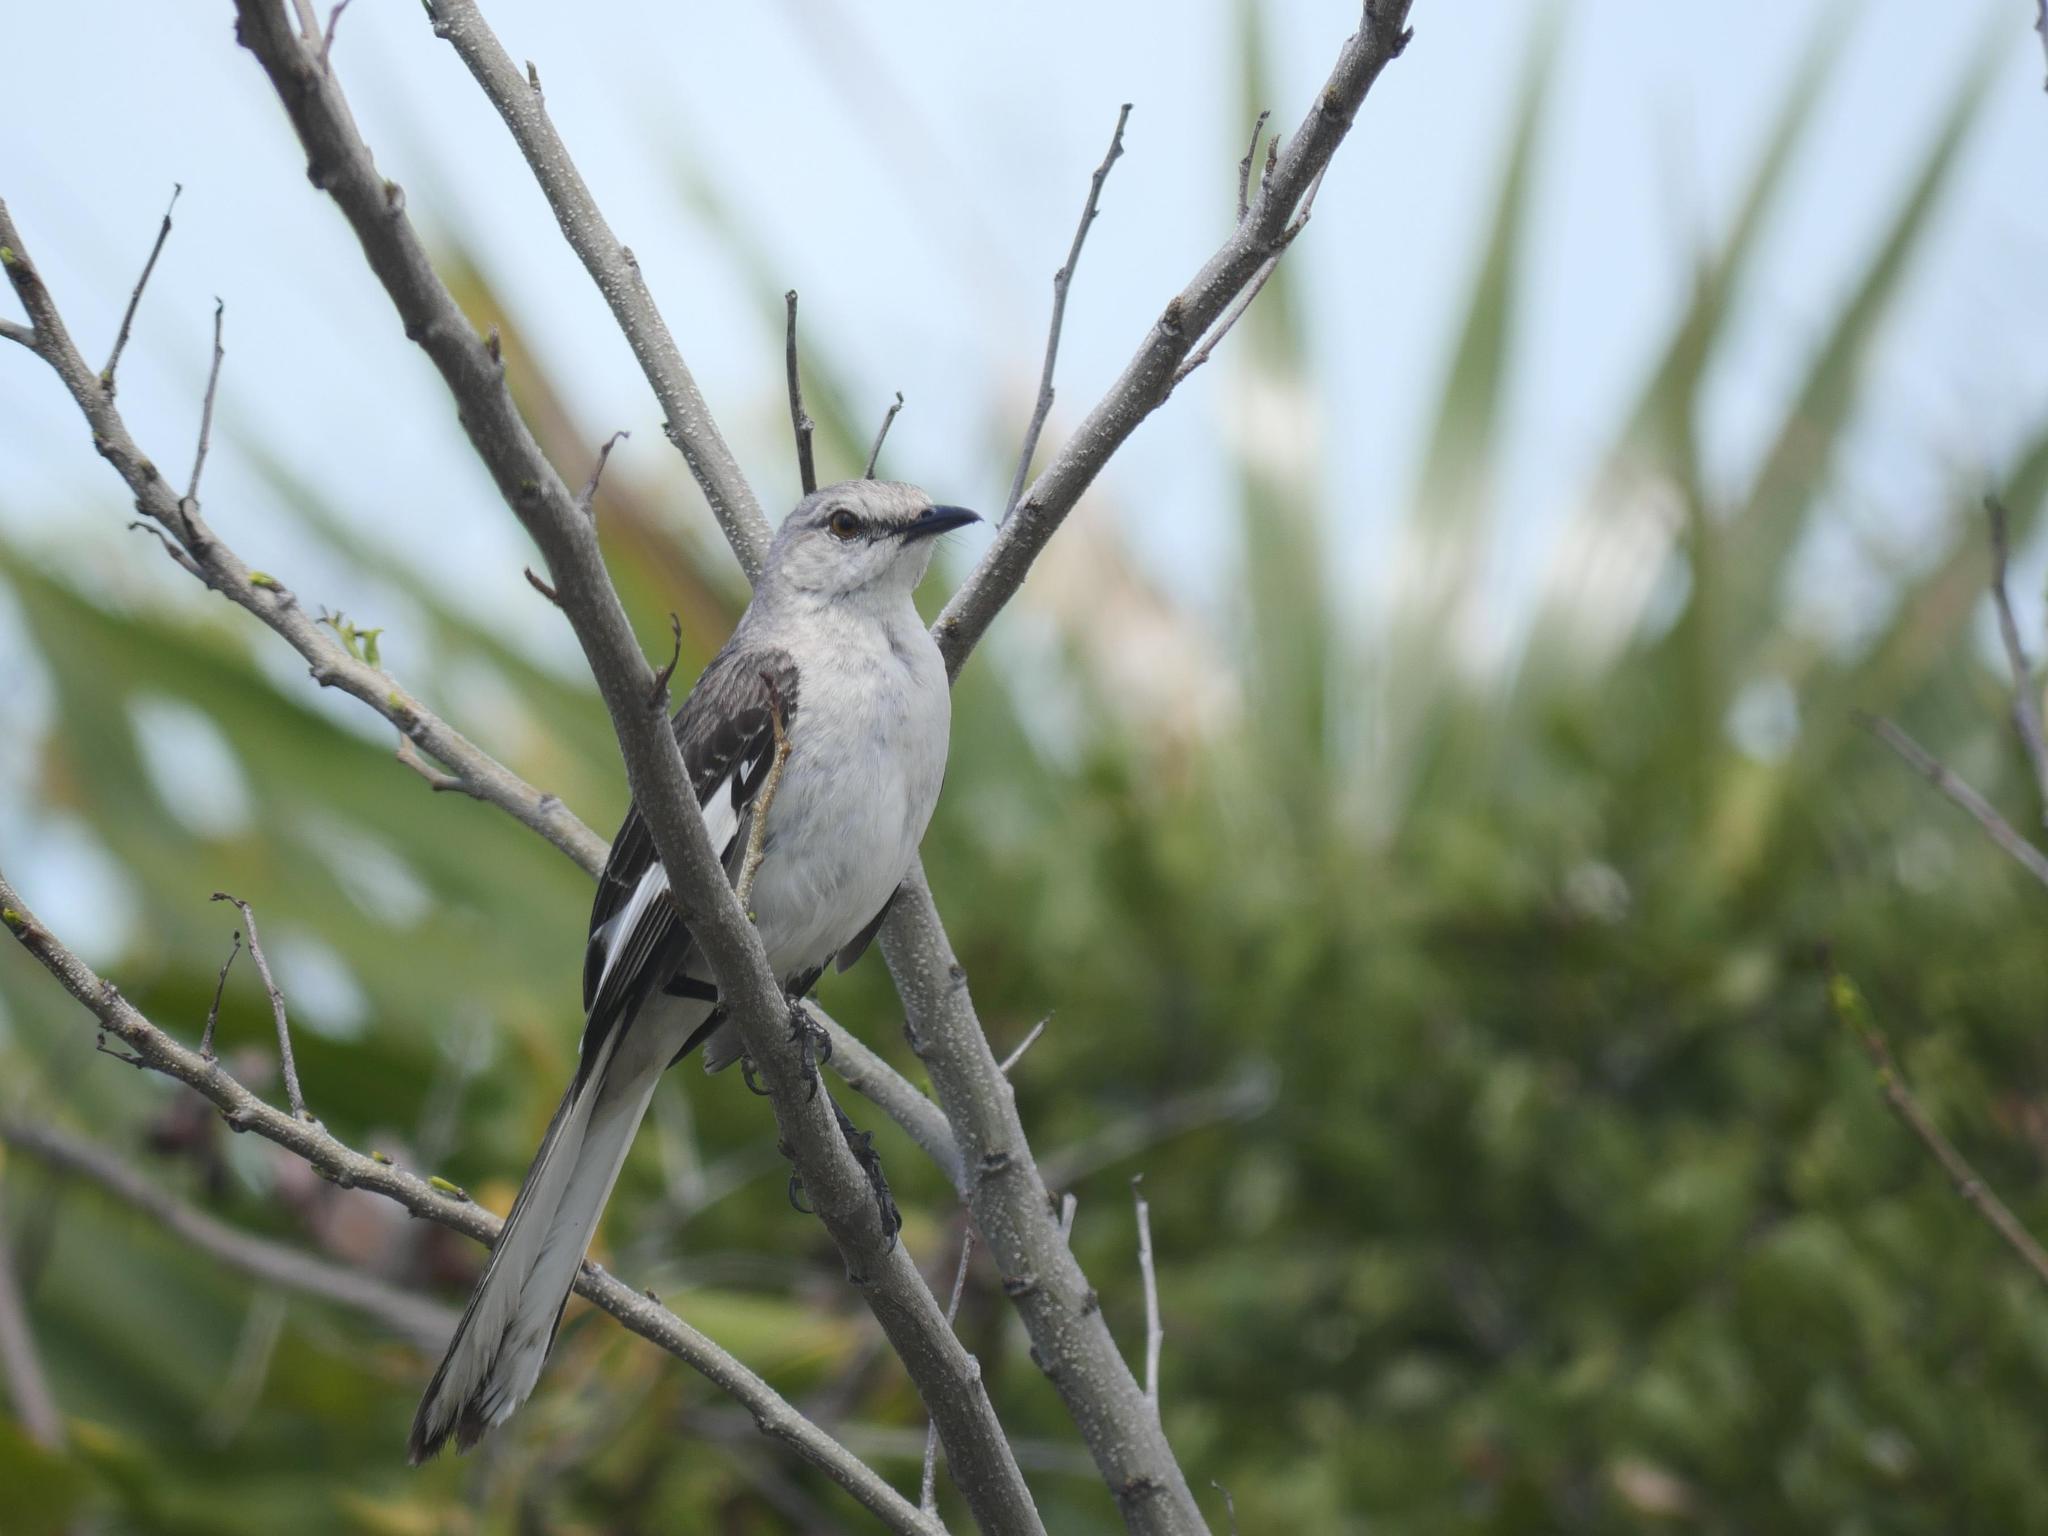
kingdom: Animalia
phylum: Chordata
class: Aves
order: Passeriformes
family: Mimidae
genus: Mimus
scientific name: Mimus polyglottos
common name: Northern mockingbird
